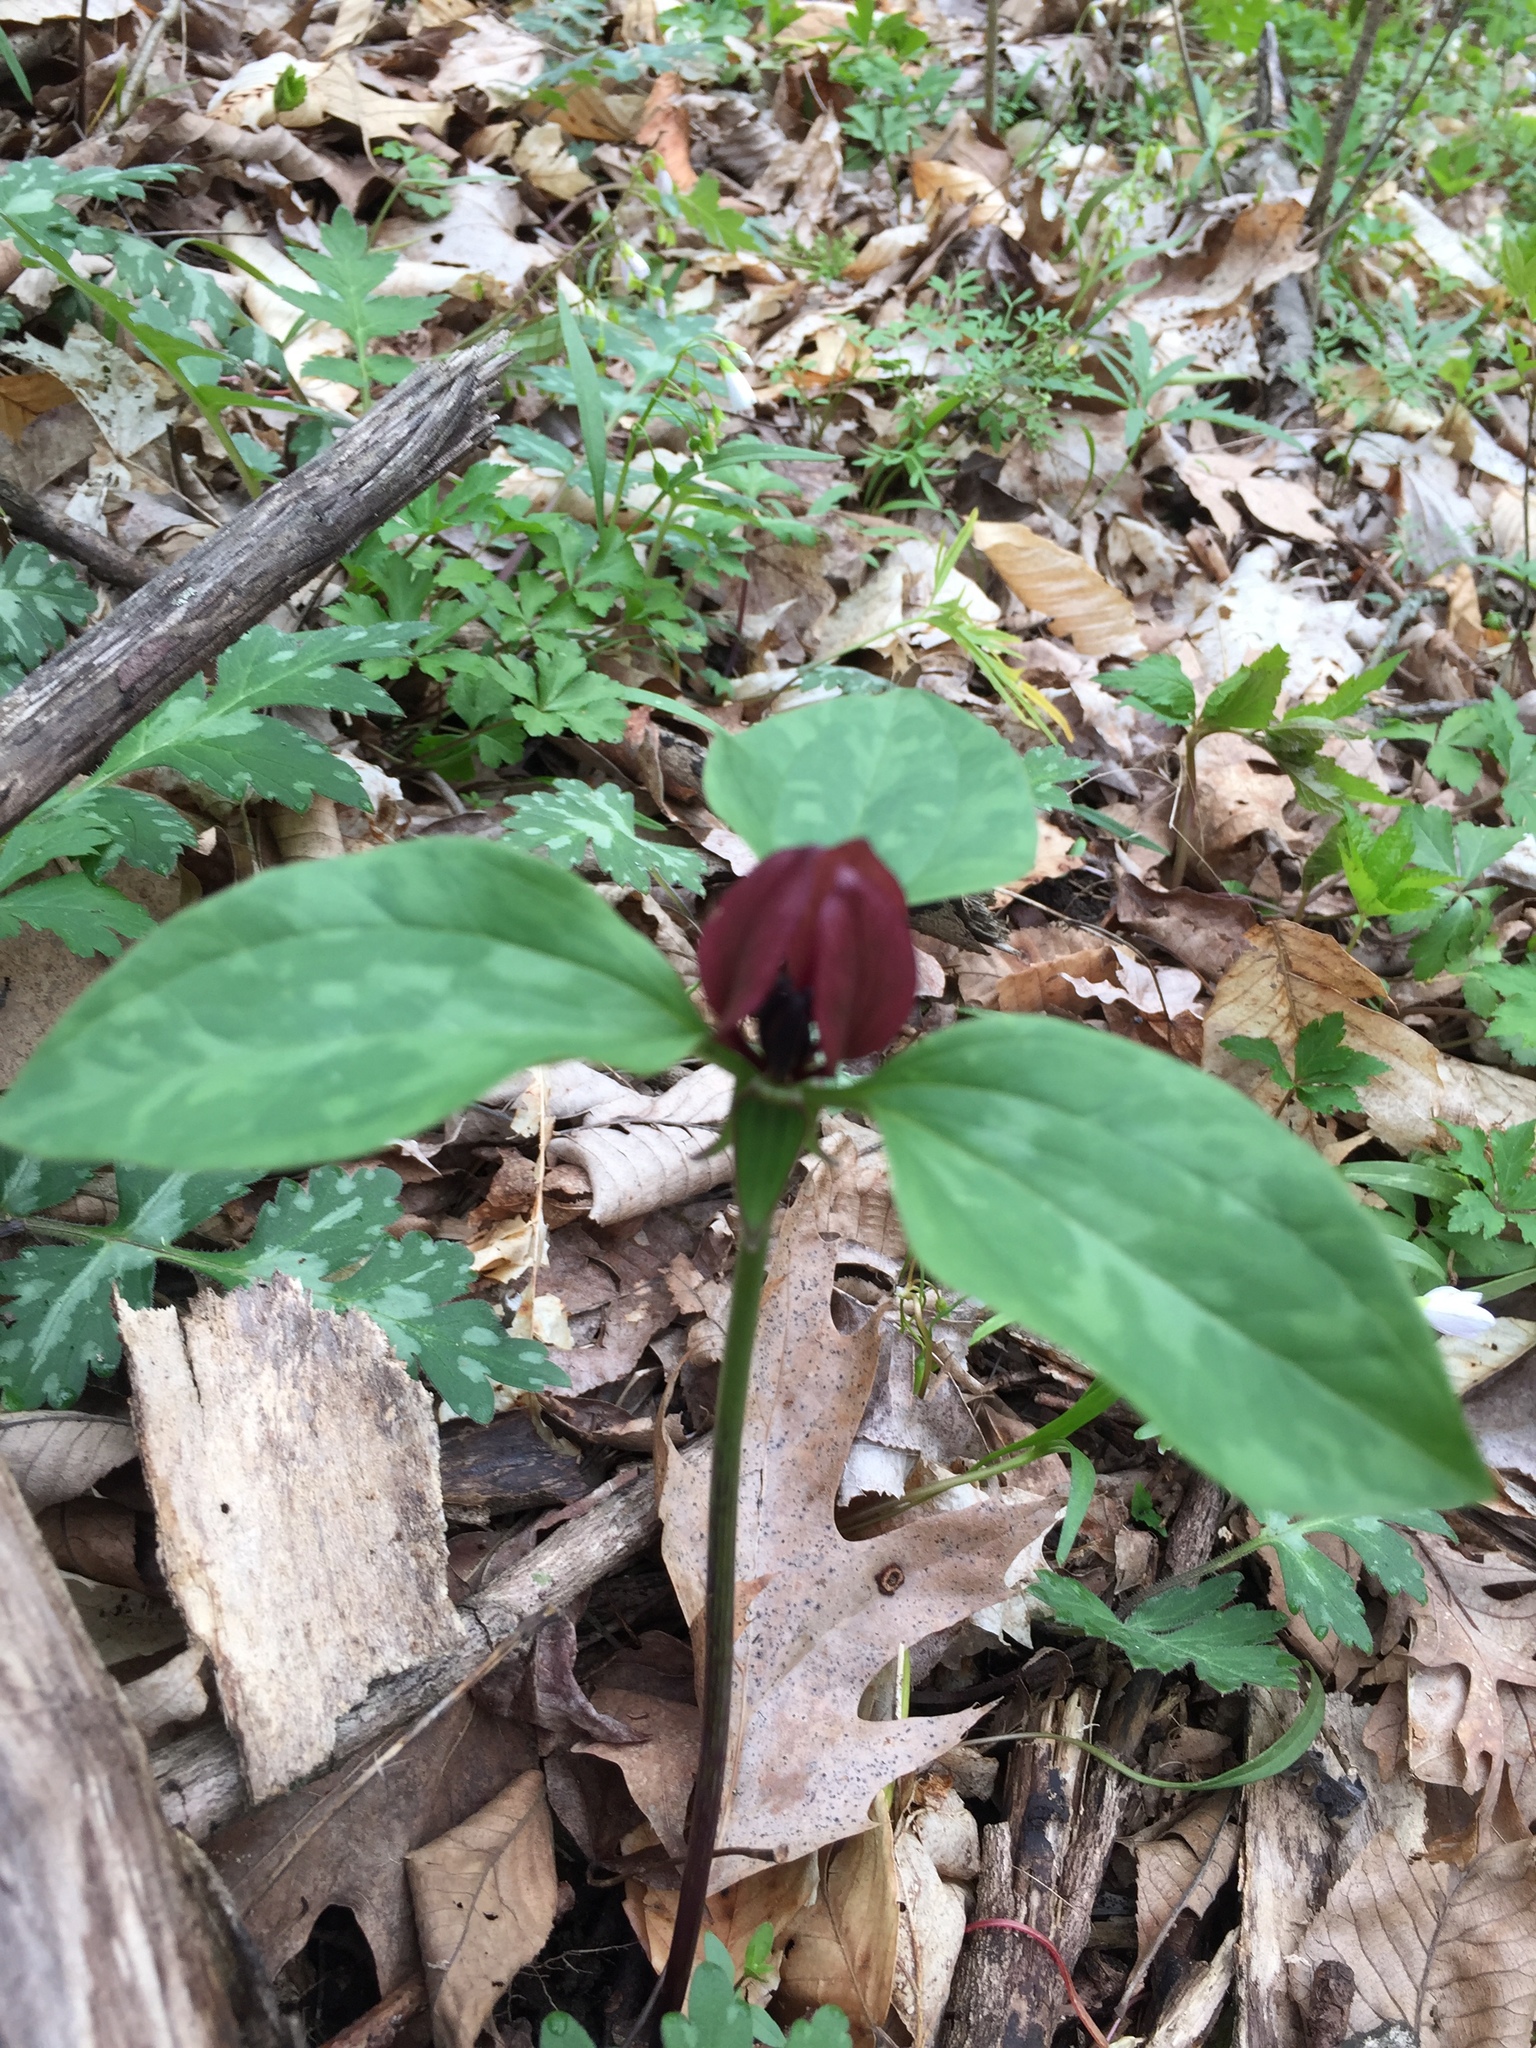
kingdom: Plantae
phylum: Tracheophyta
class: Liliopsida
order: Liliales
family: Melanthiaceae
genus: Trillium
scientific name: Trillium recurvatum
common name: Bloody butcher
